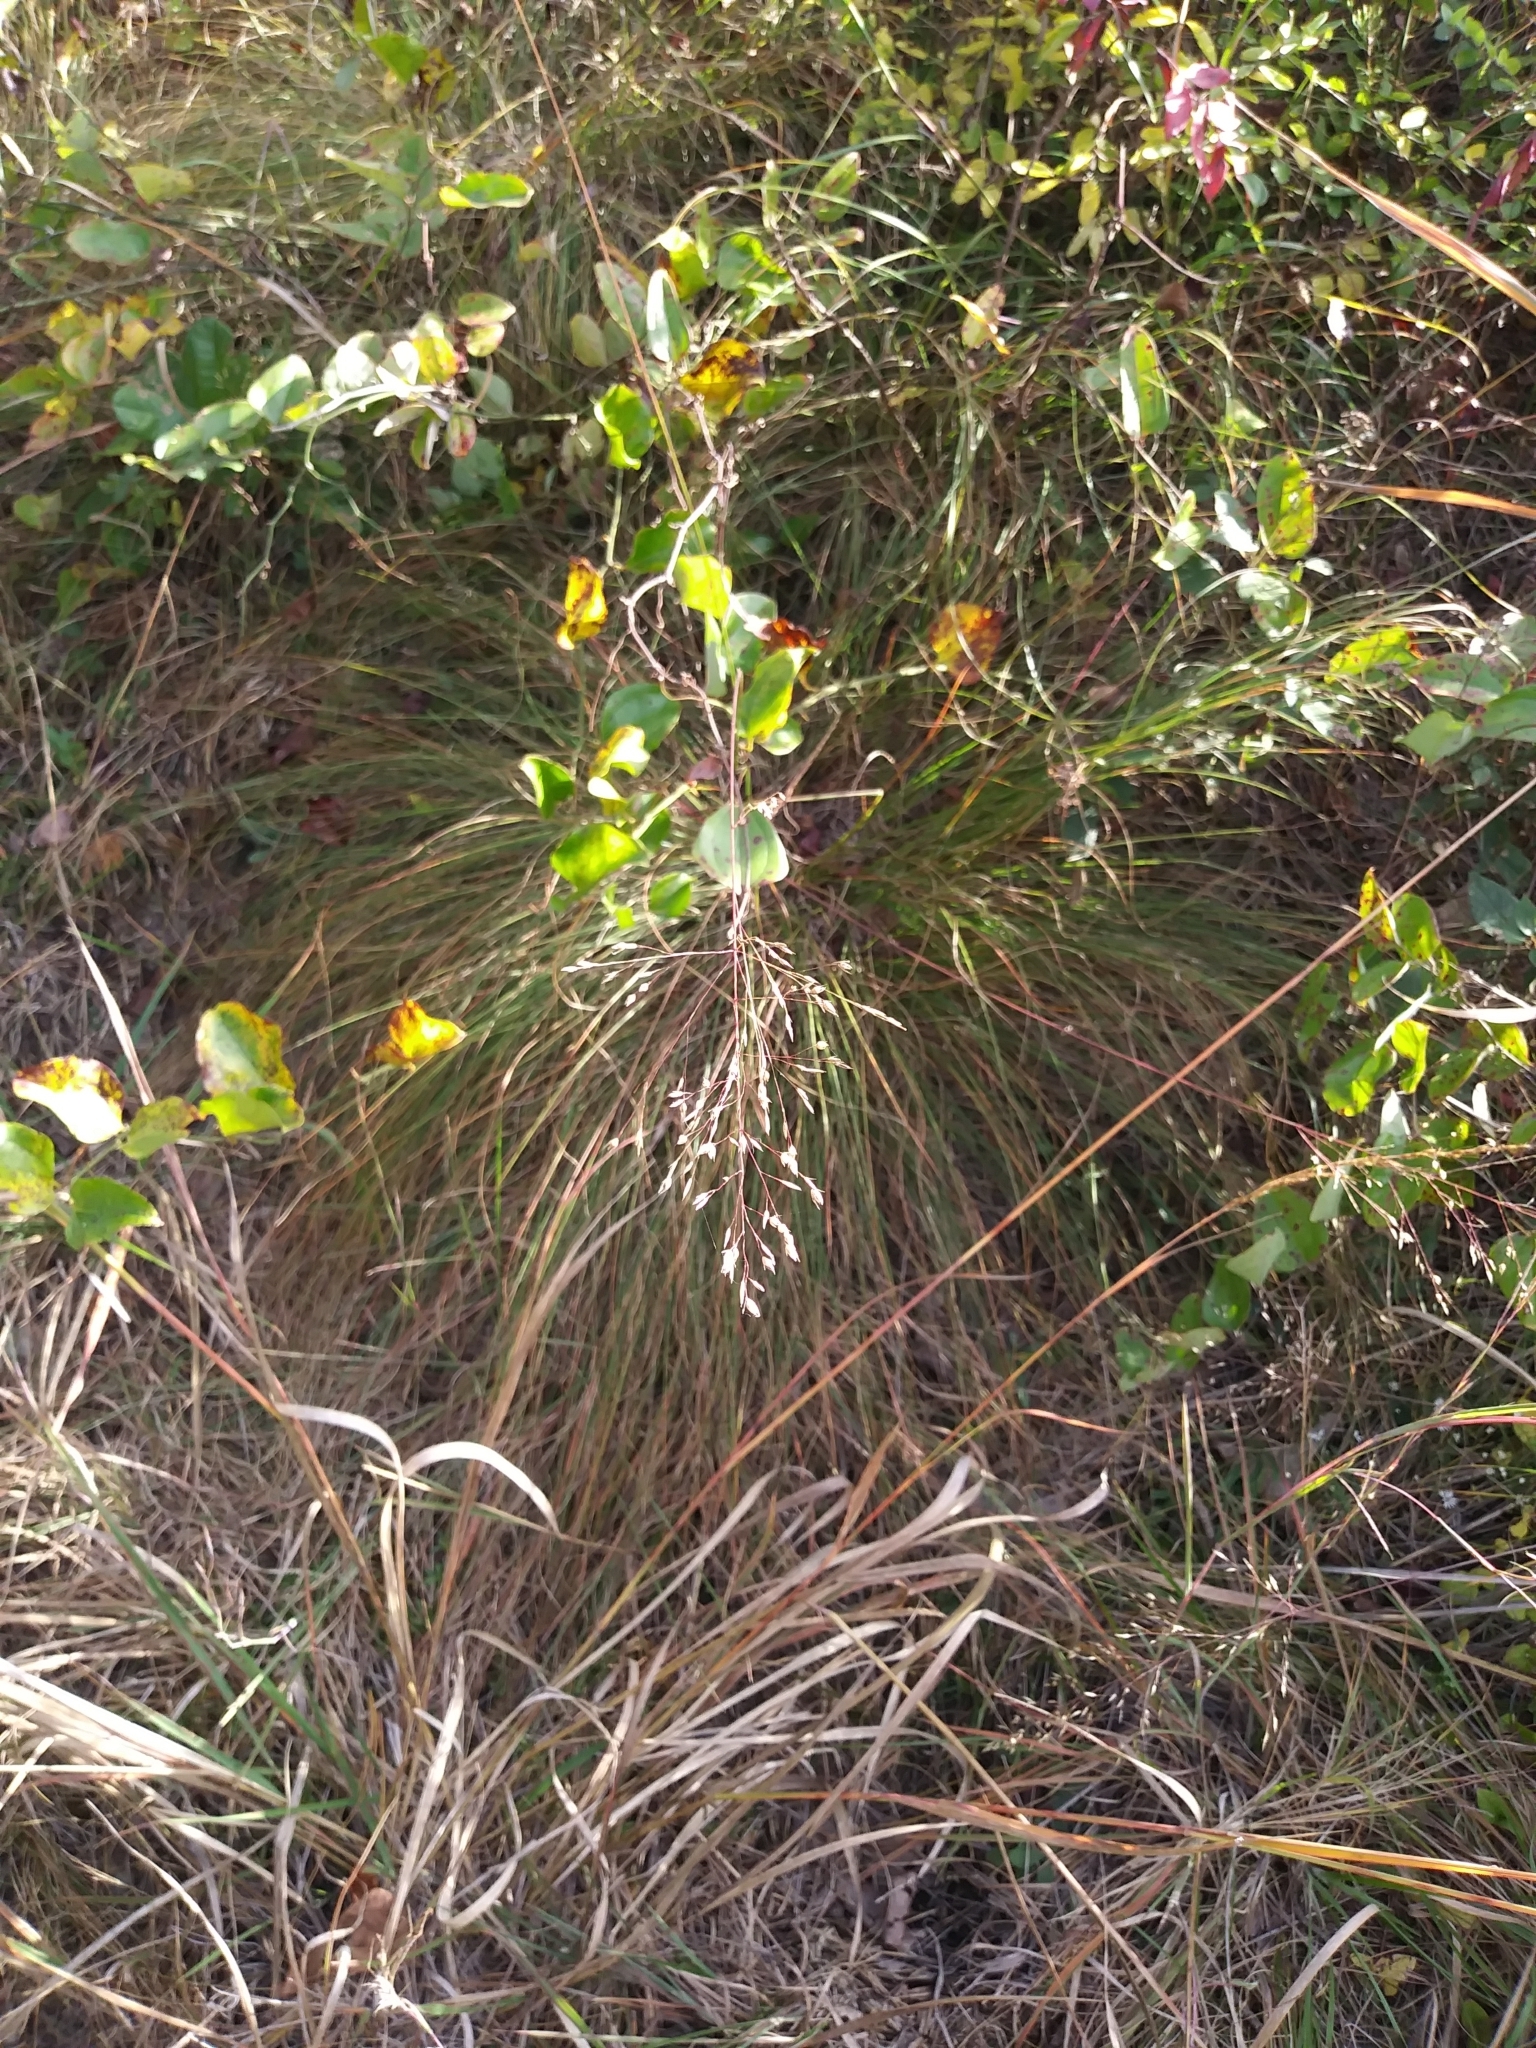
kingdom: Plantae
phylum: Tracheophyta
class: Liliopsida
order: Poales
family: Poaceae
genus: Sporobolus
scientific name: Sporobolus heterolepis
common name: Prairie dropseed
